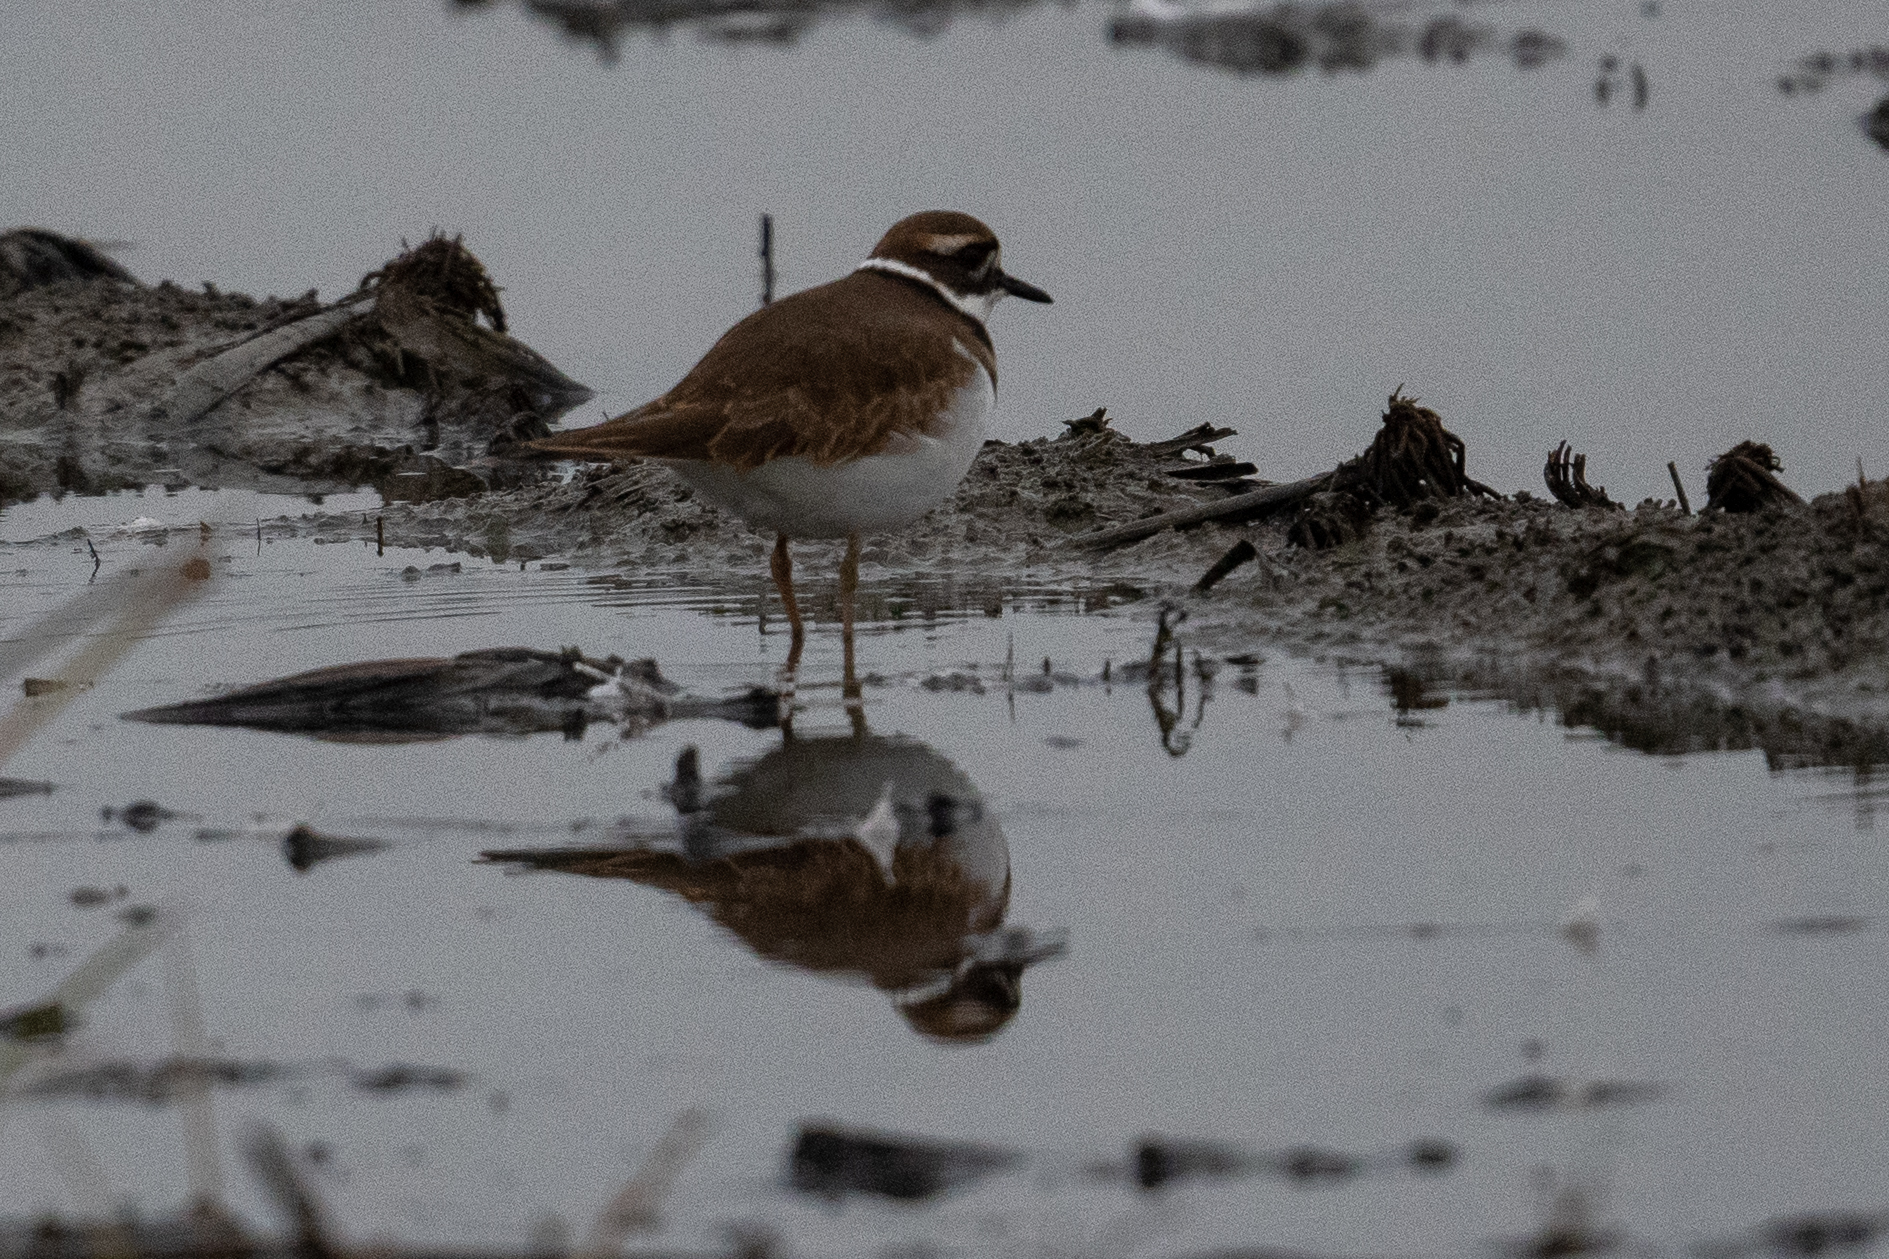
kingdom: Animalia
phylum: Chordata
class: Aves
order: Charadriiformes
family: Charadriidae
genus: Charadrius
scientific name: Charadrius vociferus
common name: Killdeer
